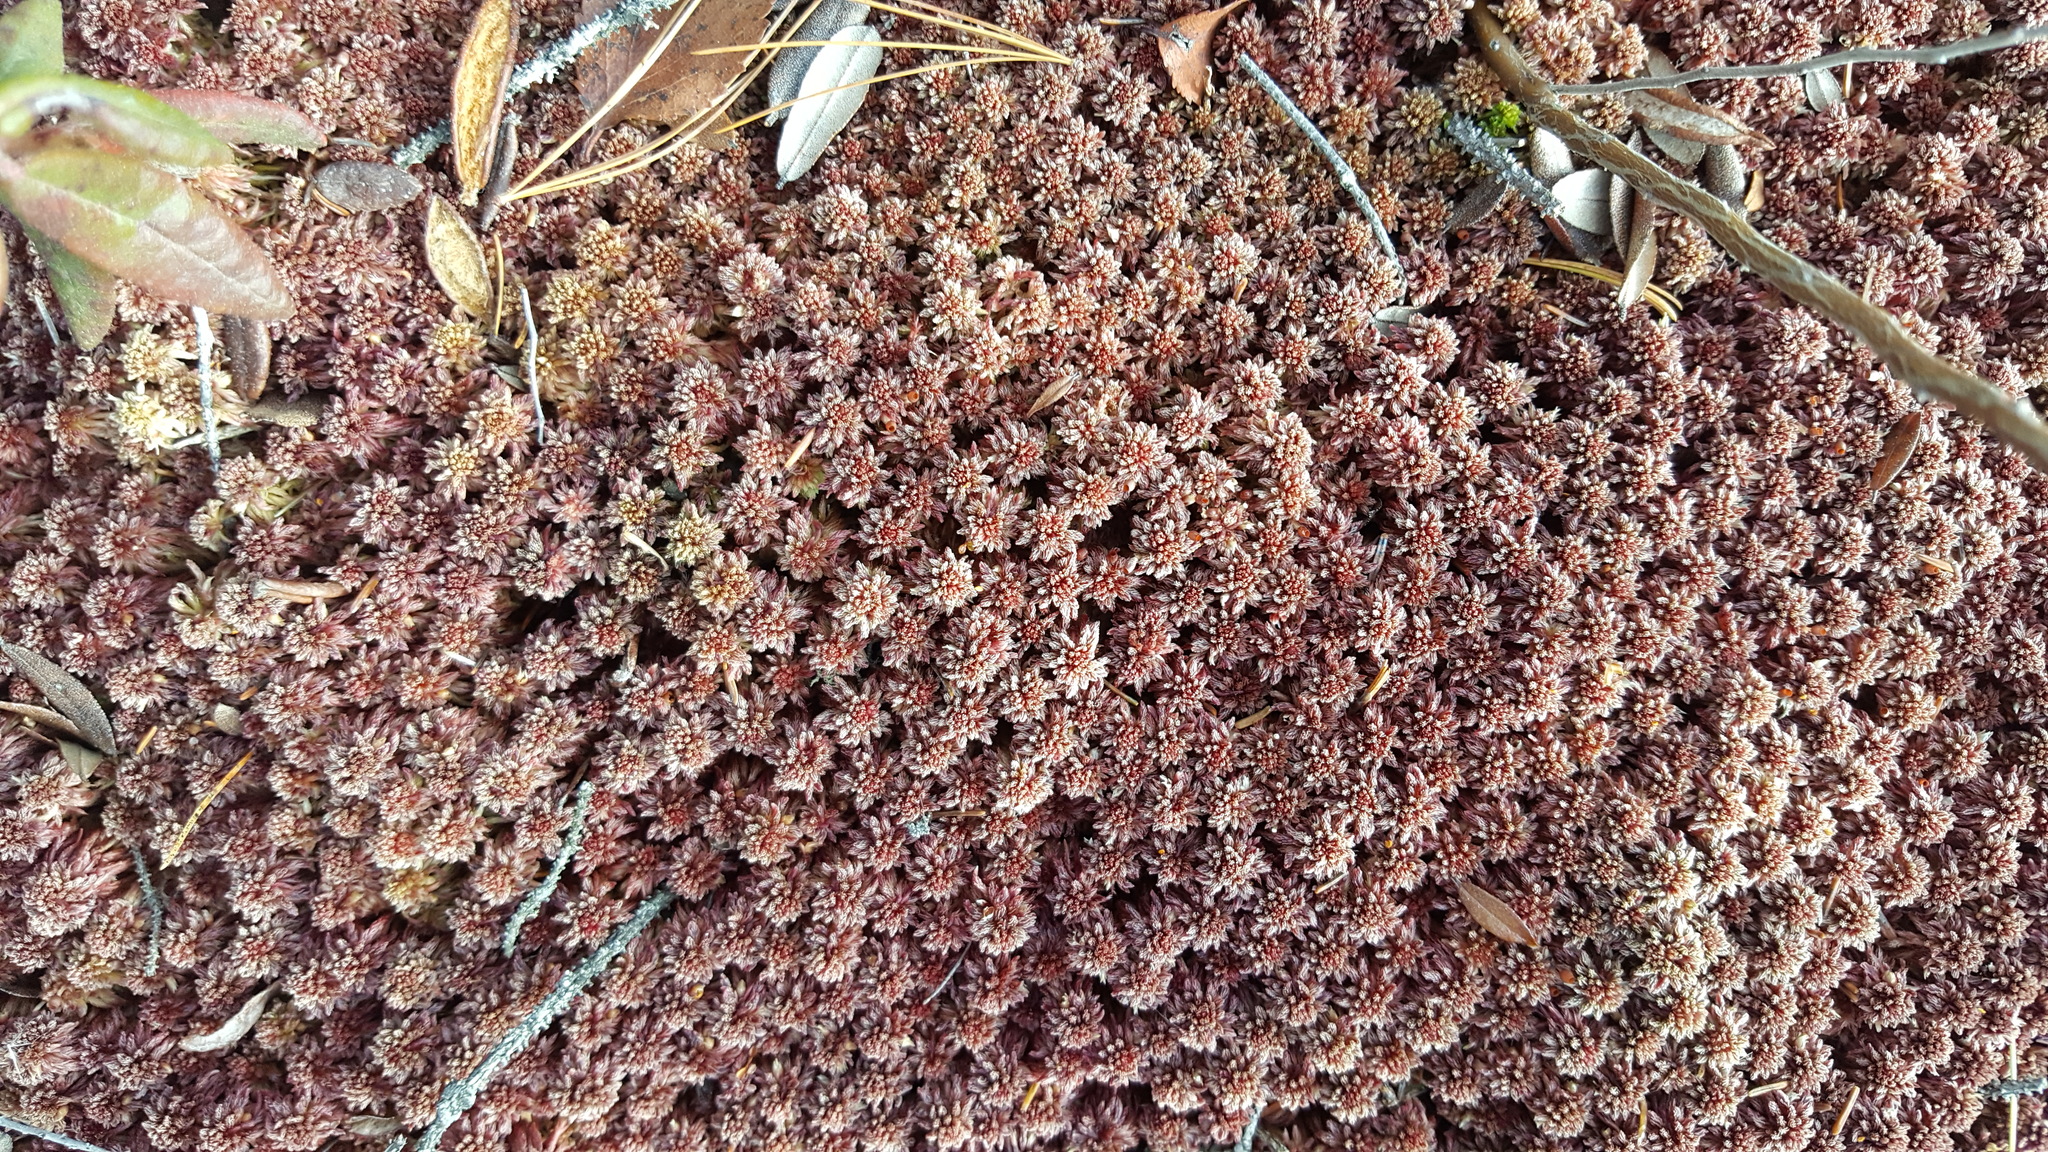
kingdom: Plantae
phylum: Bryophyta
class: Sphagnopsida
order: Sphagnales
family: Sphagnaceae
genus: Sphagnum
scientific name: Sphagnum capillifolium
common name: Small red peat moss
